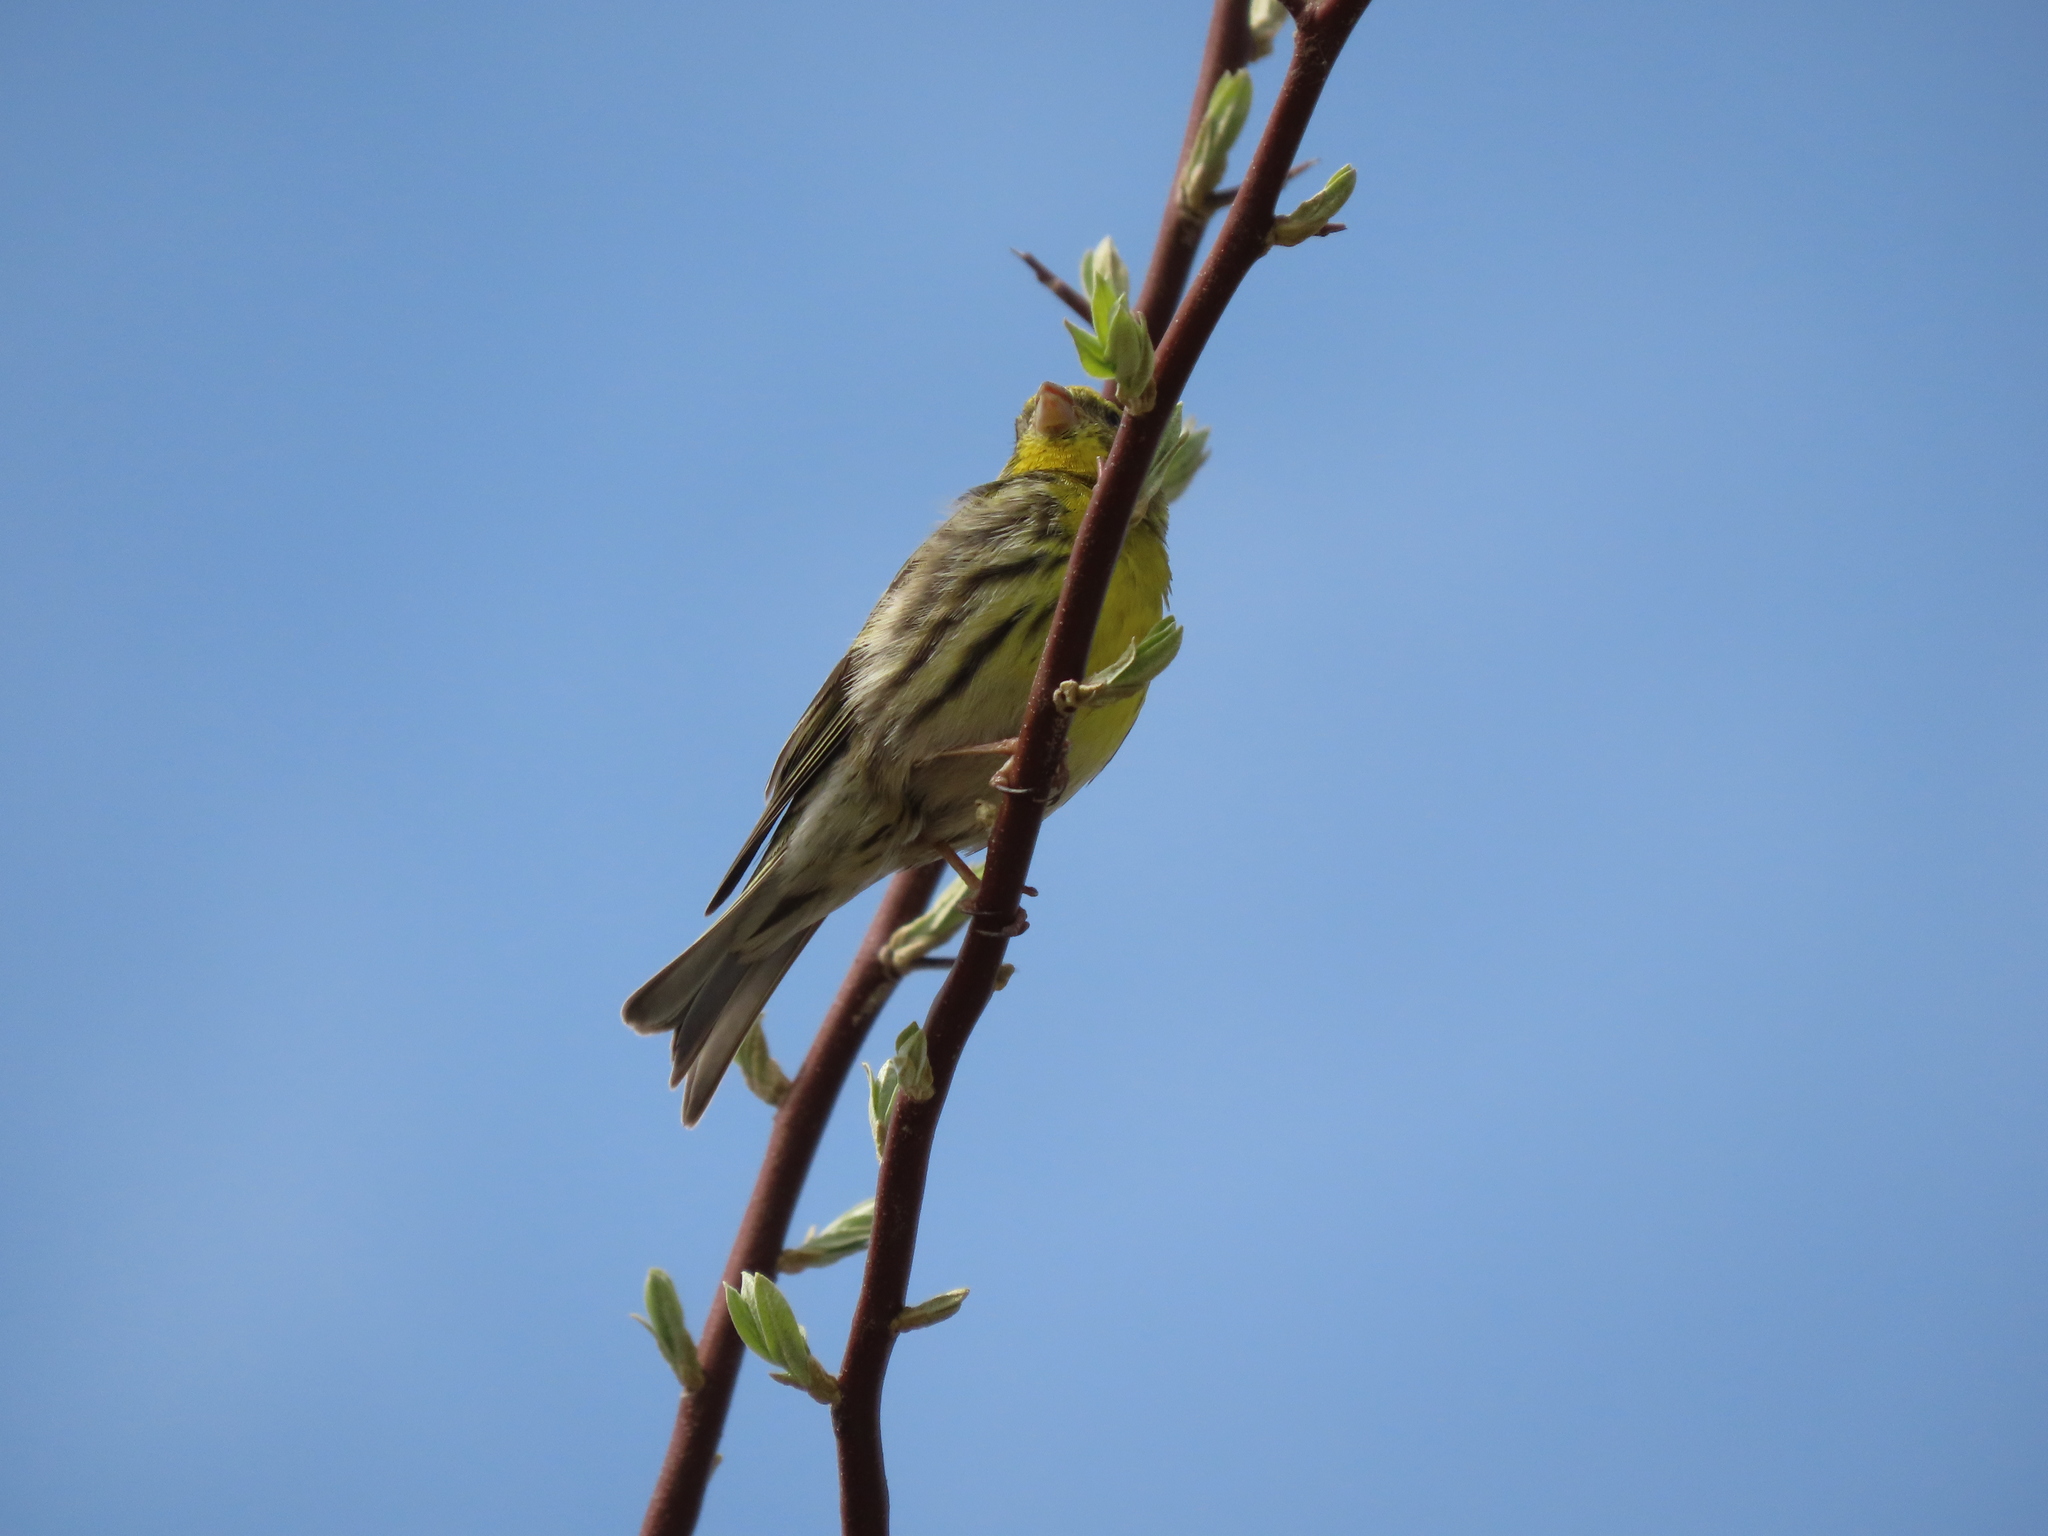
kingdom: Animalia
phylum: Chordata
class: Aves
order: Passeriformes
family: Fringillidae
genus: Serinus
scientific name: Serinus serinus
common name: European serin
